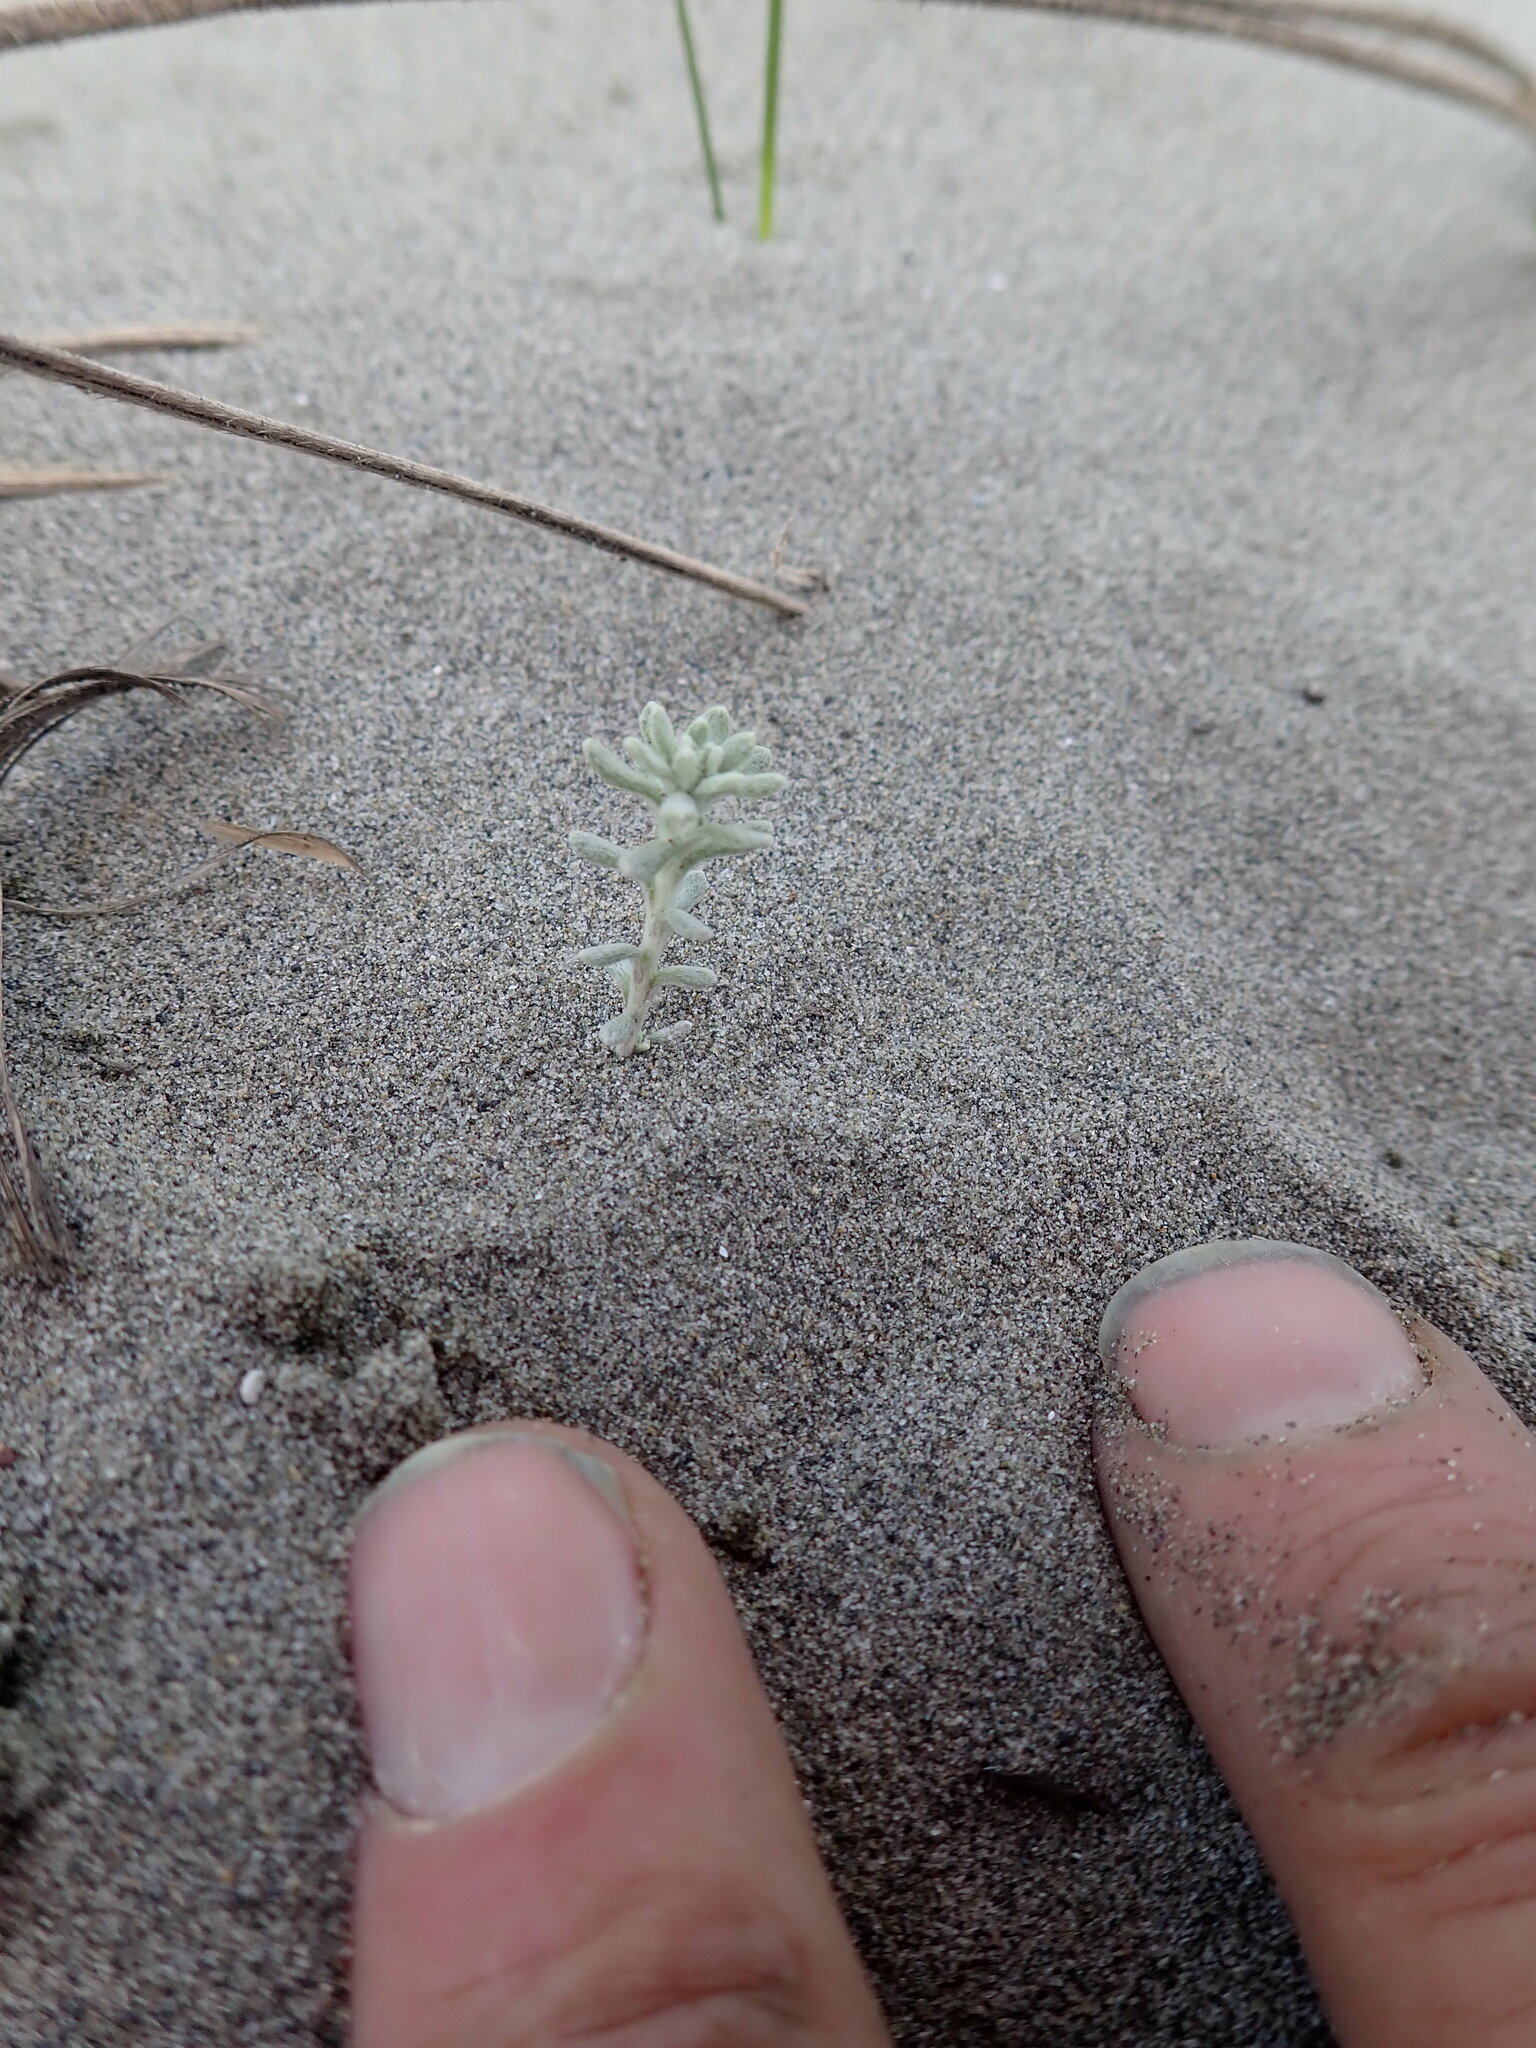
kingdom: Plantae
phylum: Tracheophyta
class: Magnoliopsida
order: Asterales
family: Asteraceae
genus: Ozothamnus
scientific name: Ozothamnus leptophyllus
